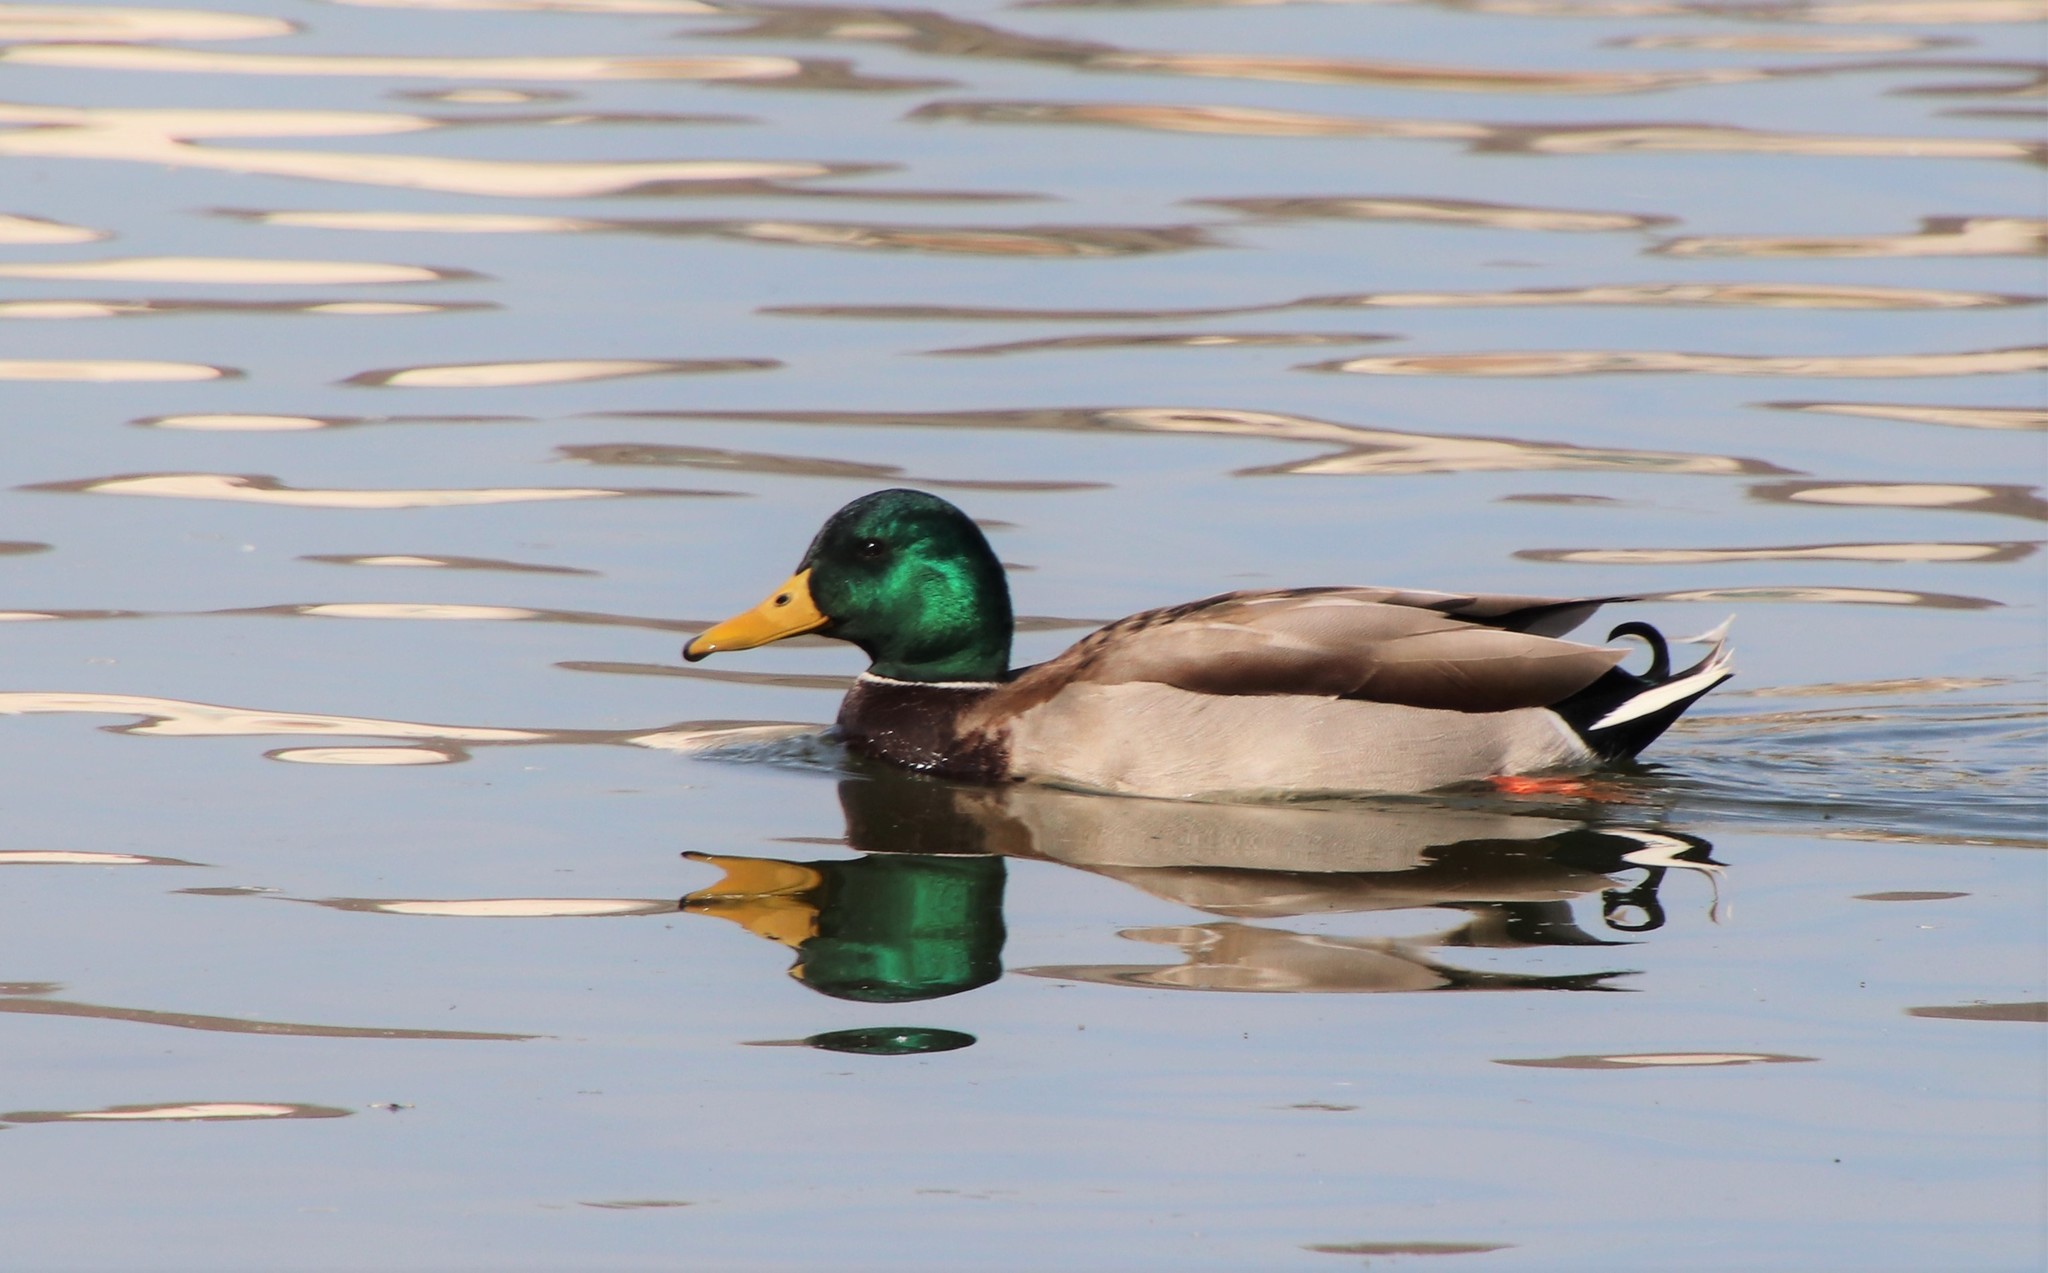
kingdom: Animalia
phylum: Chordata
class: Aves
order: Anseriformes
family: Anatidae
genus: Anas
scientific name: Anas platyrhynchos
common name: Mallard
